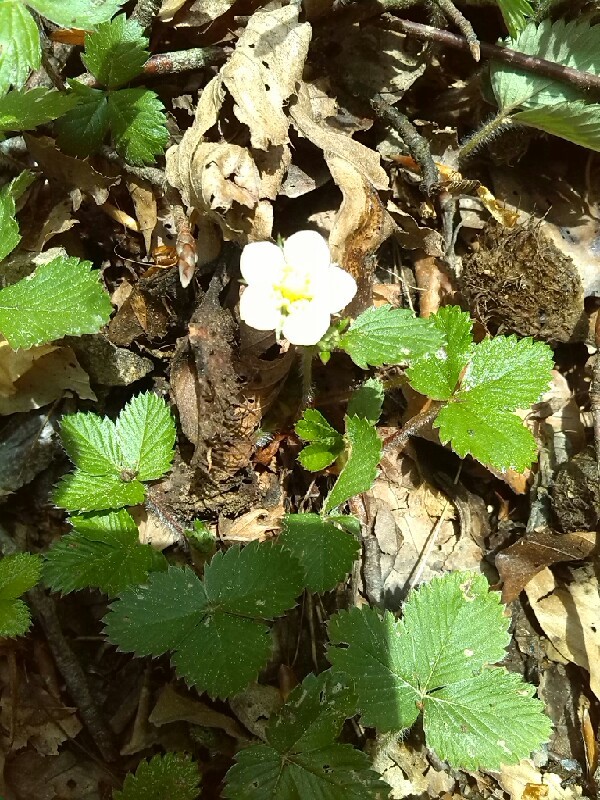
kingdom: Plantae
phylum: Tracheophyta
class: Magnoliopsida
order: Rosales
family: Rosaceae
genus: Fragaria
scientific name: Fragaria vesca
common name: Wild strawberry
